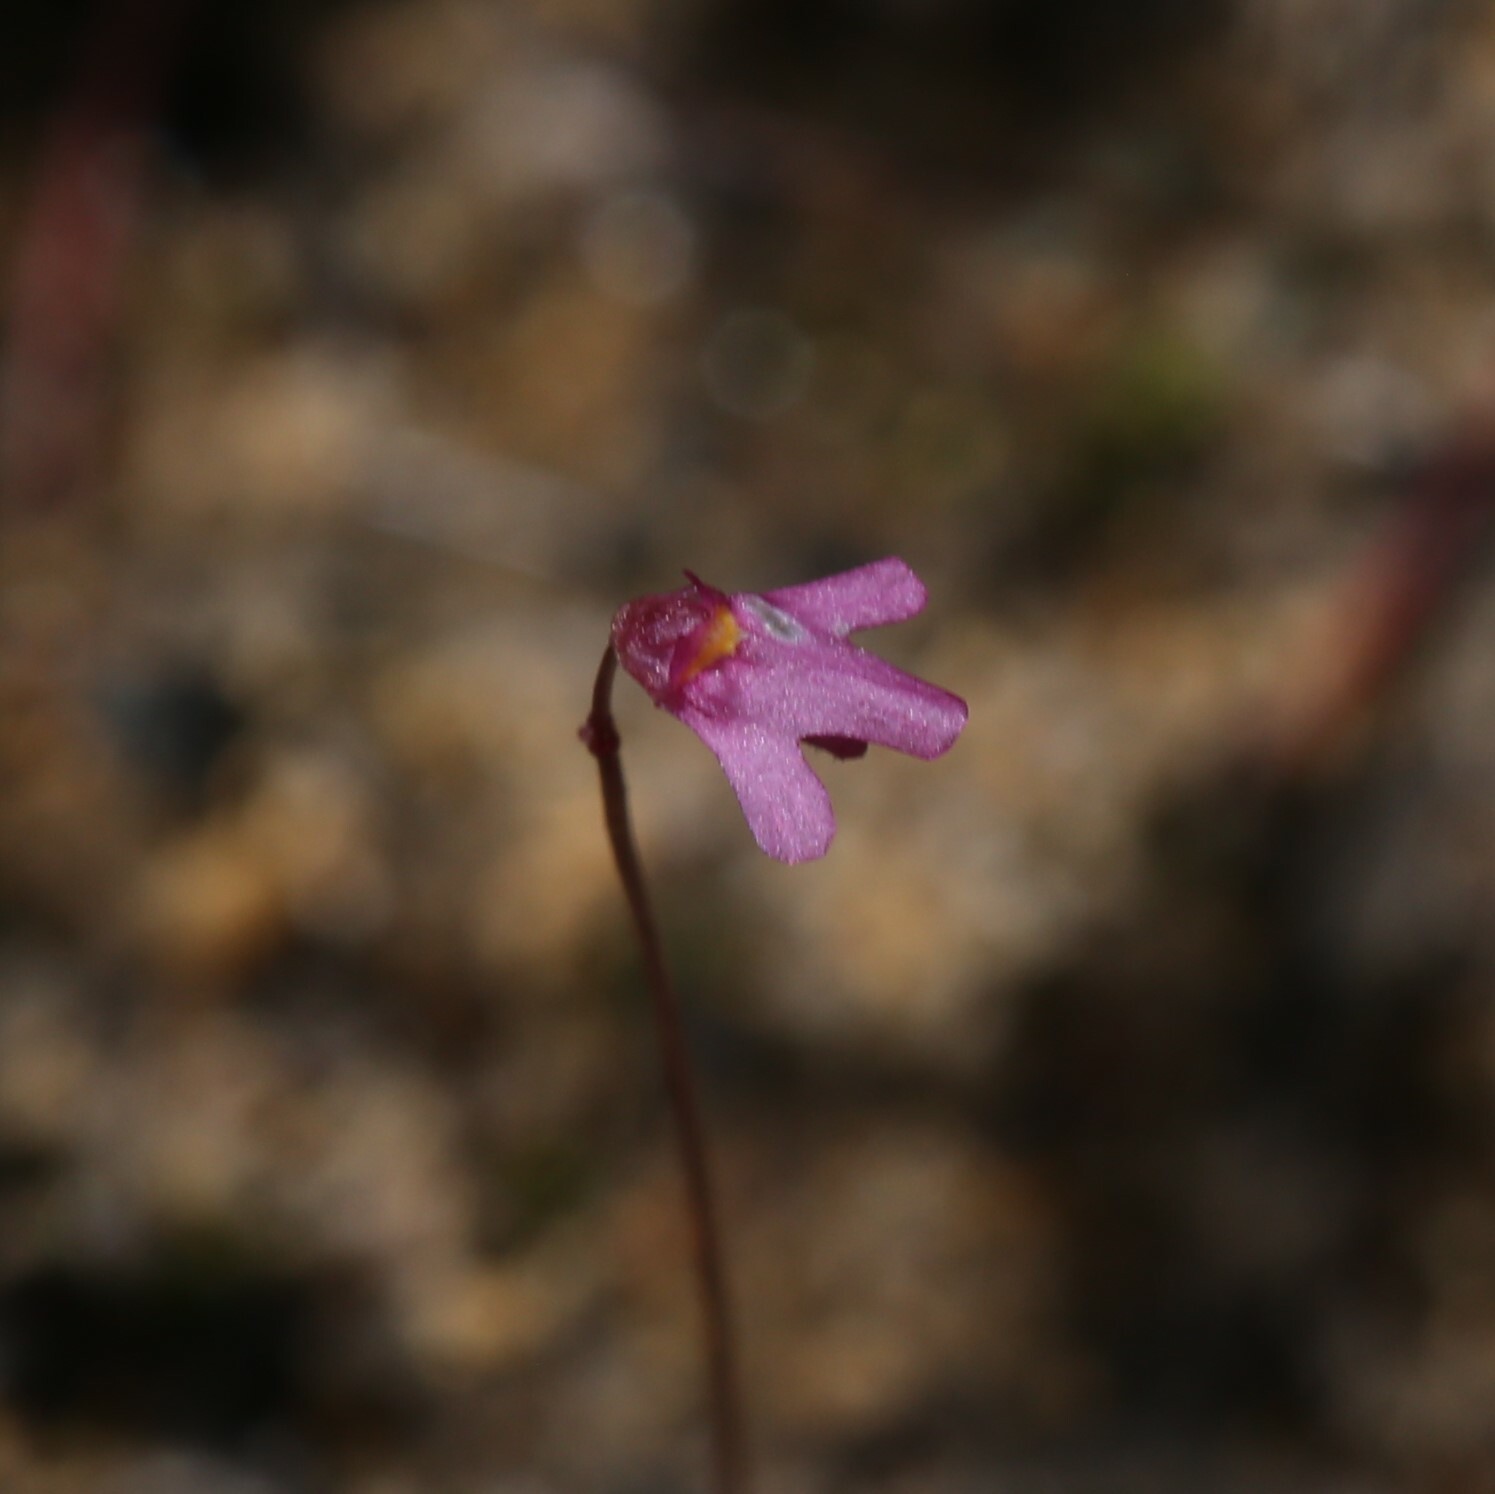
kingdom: Plantae
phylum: Tracheophyta
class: Magnoliopsida
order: Lamiales
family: Lentibulariaceae
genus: Utricularia
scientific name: Utricularia tenella
